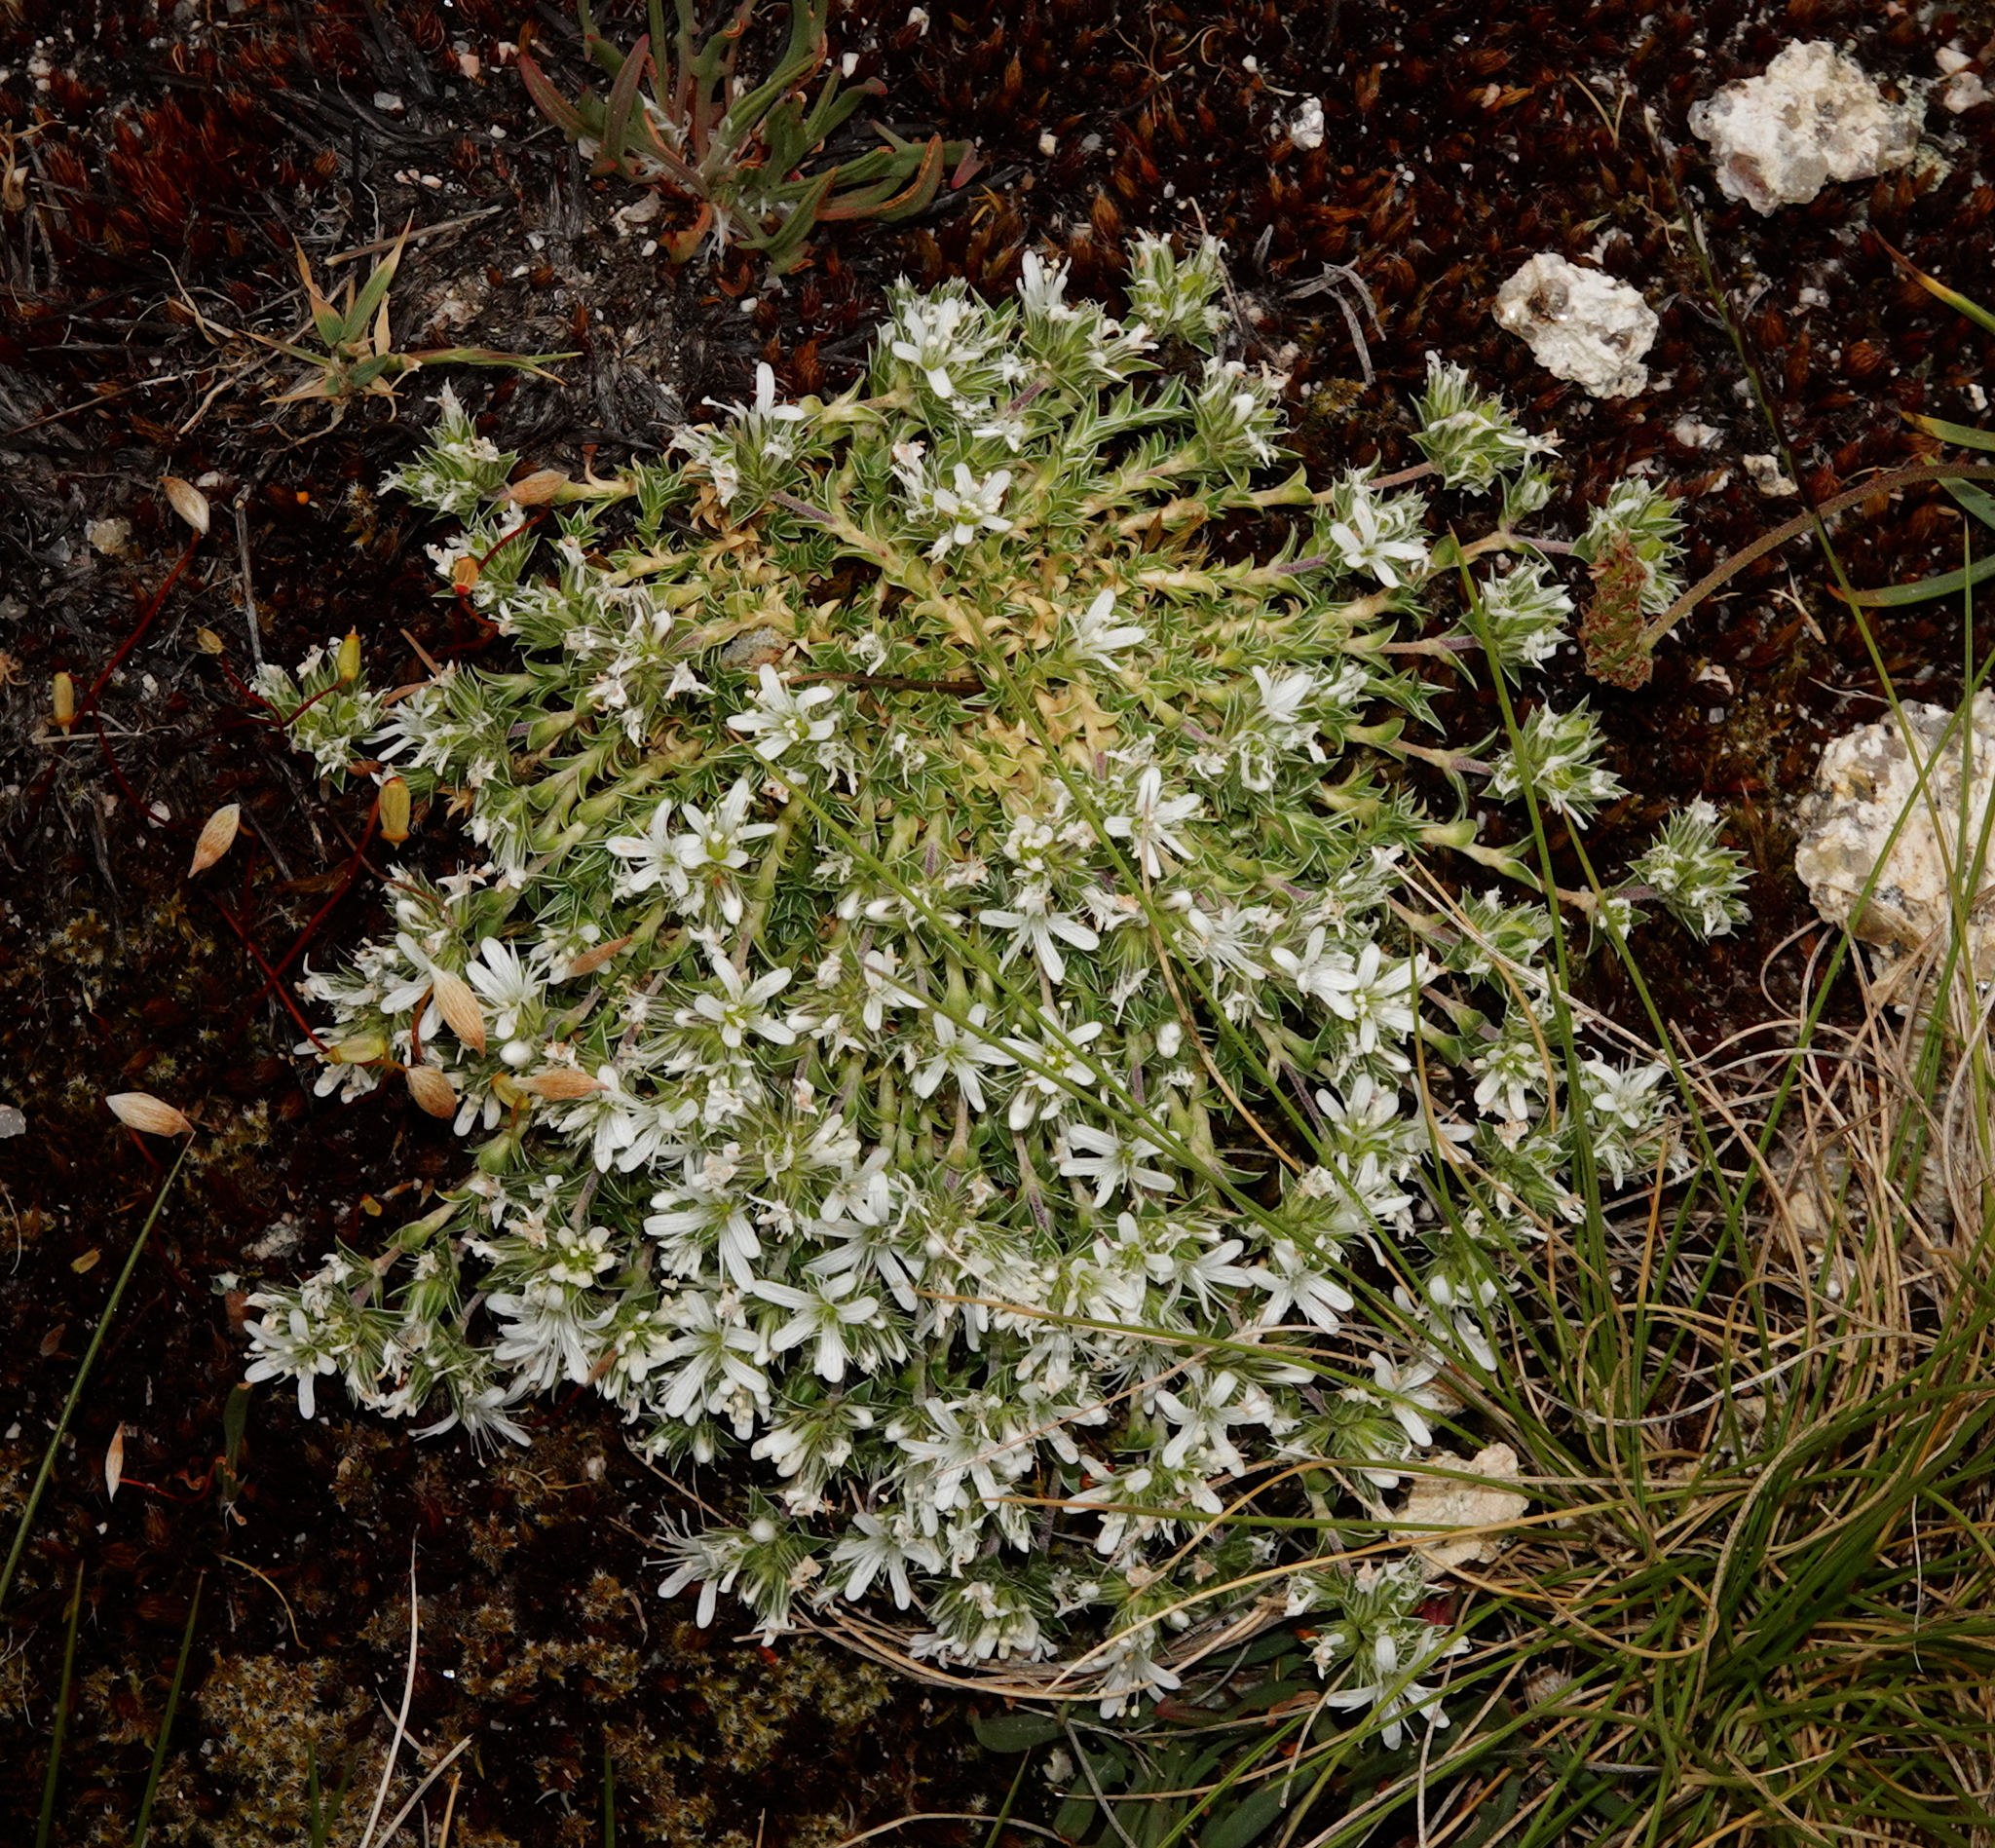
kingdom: Plantae
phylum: Tracheophyta
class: Magnoliopsida
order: Caryophyllales
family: Caryophyllaceae
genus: Arenaria
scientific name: Arenaria querioides
